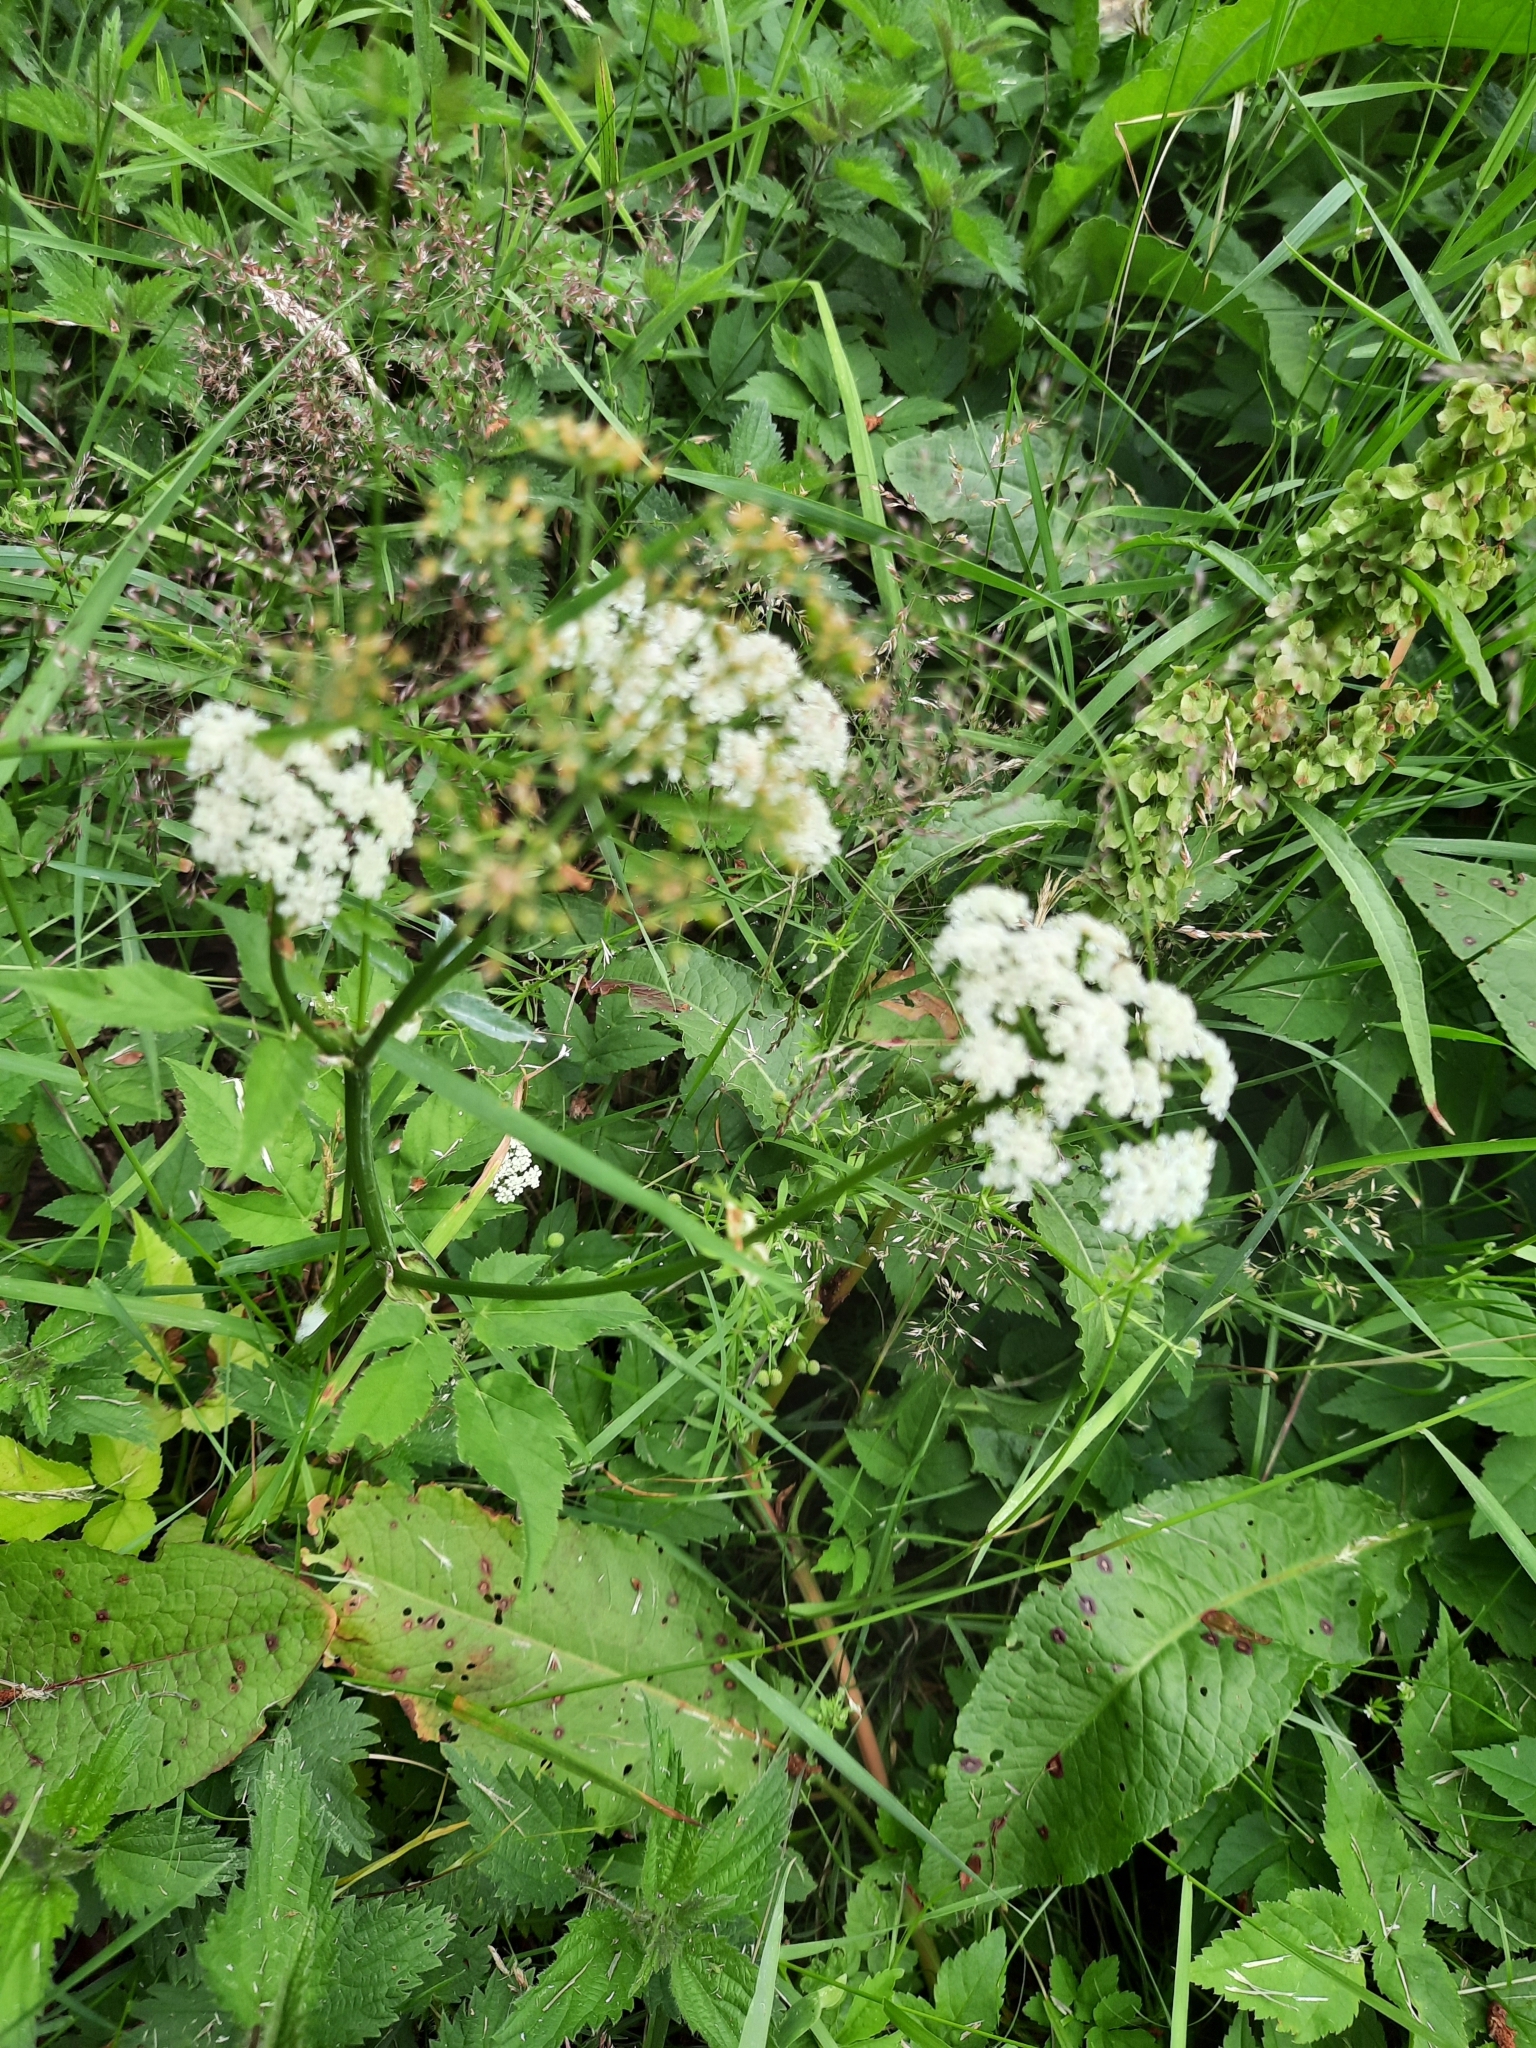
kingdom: Plantae
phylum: Tracheophyta
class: Magnoliopsida
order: Apiales
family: Apiaceae
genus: Aegopodium
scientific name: Aegopodium podagraria
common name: Ground-elder
